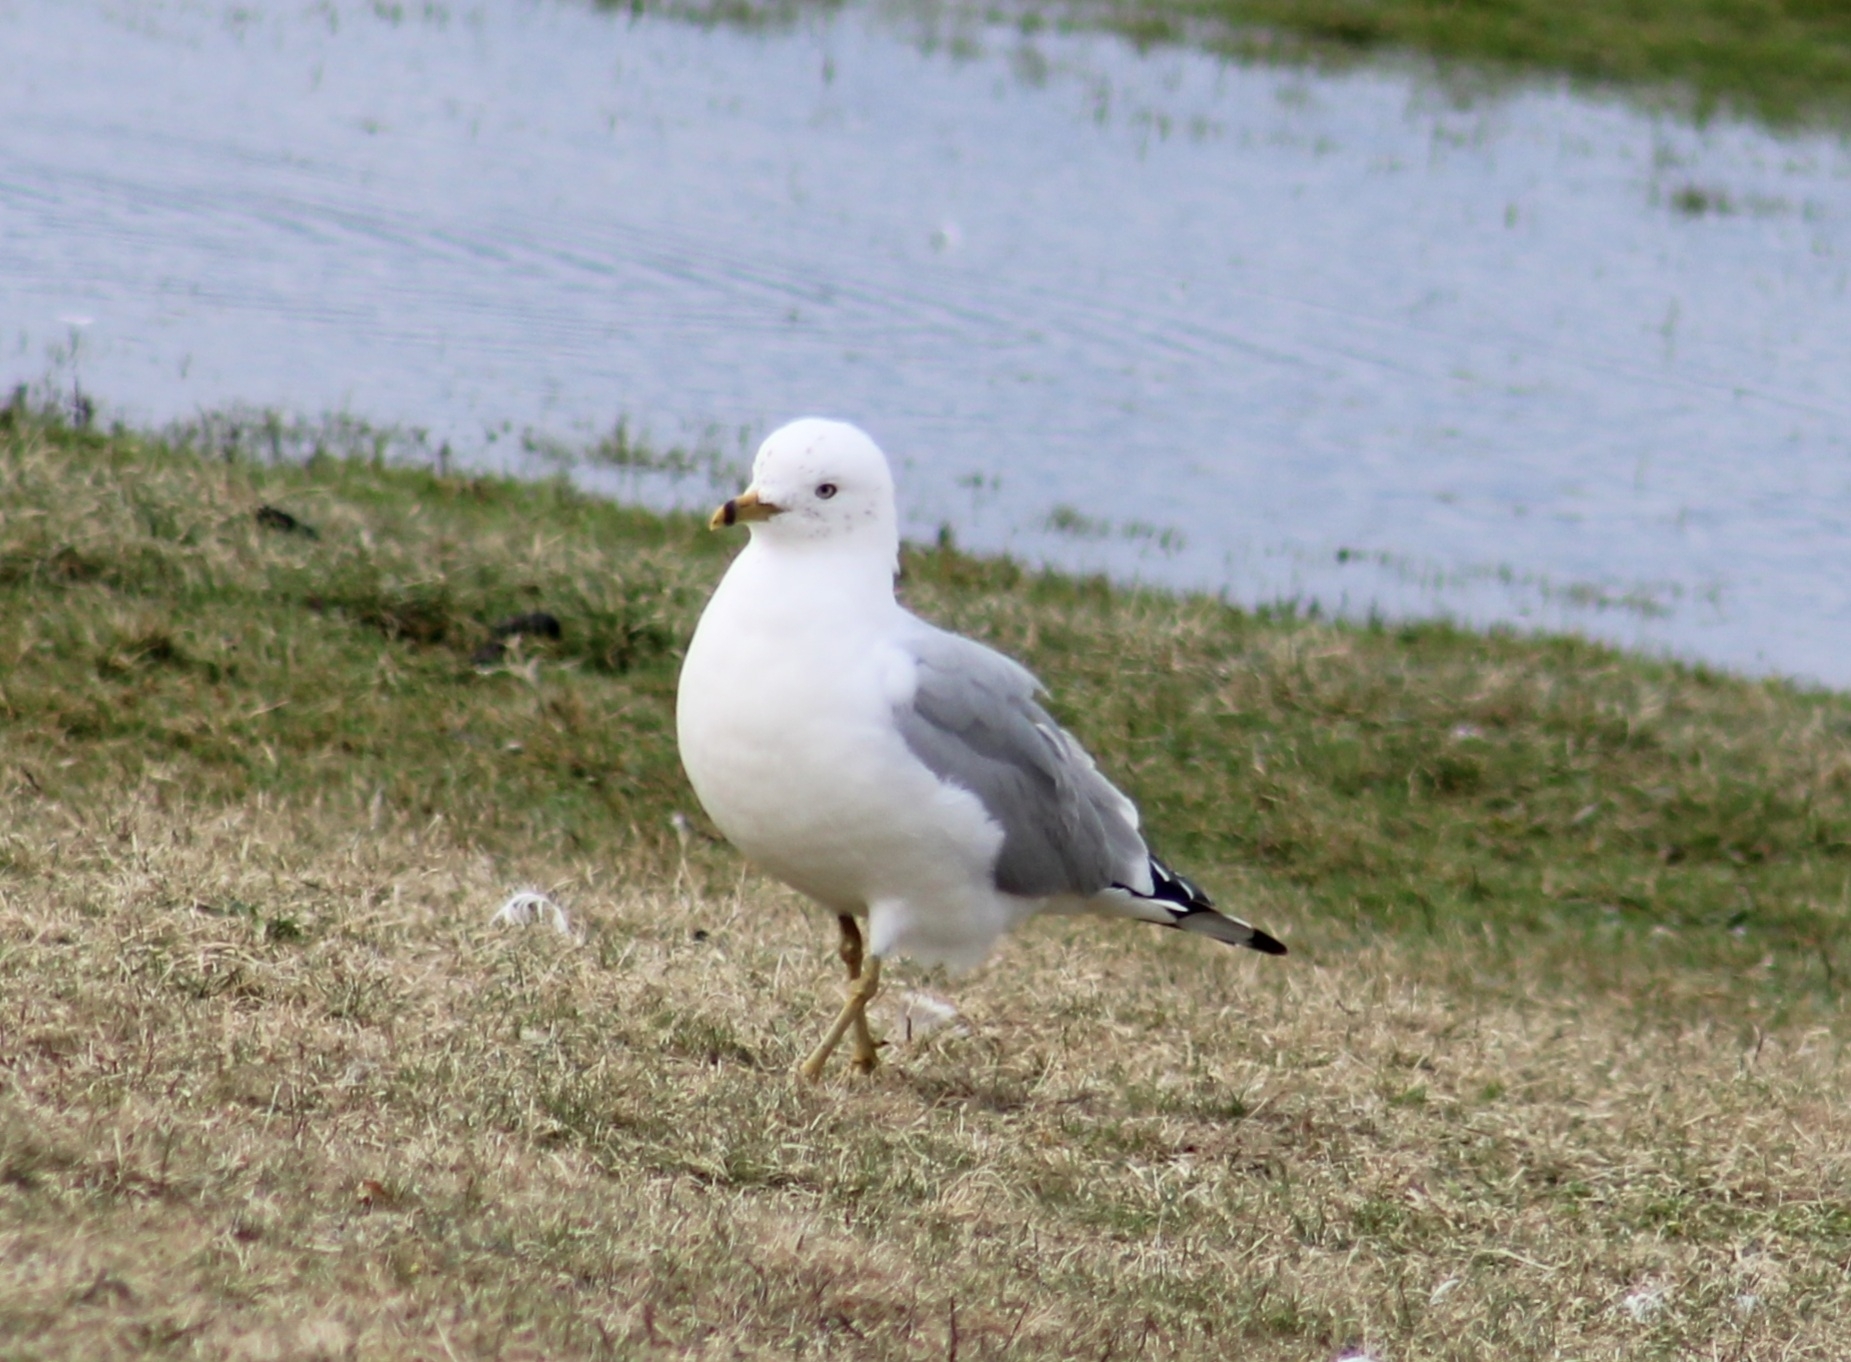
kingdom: Animalia
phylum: Chordata
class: Aves
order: Charadriiformes
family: Laridae
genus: Larus
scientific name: Larus delawarensis
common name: Ring-billed gull
